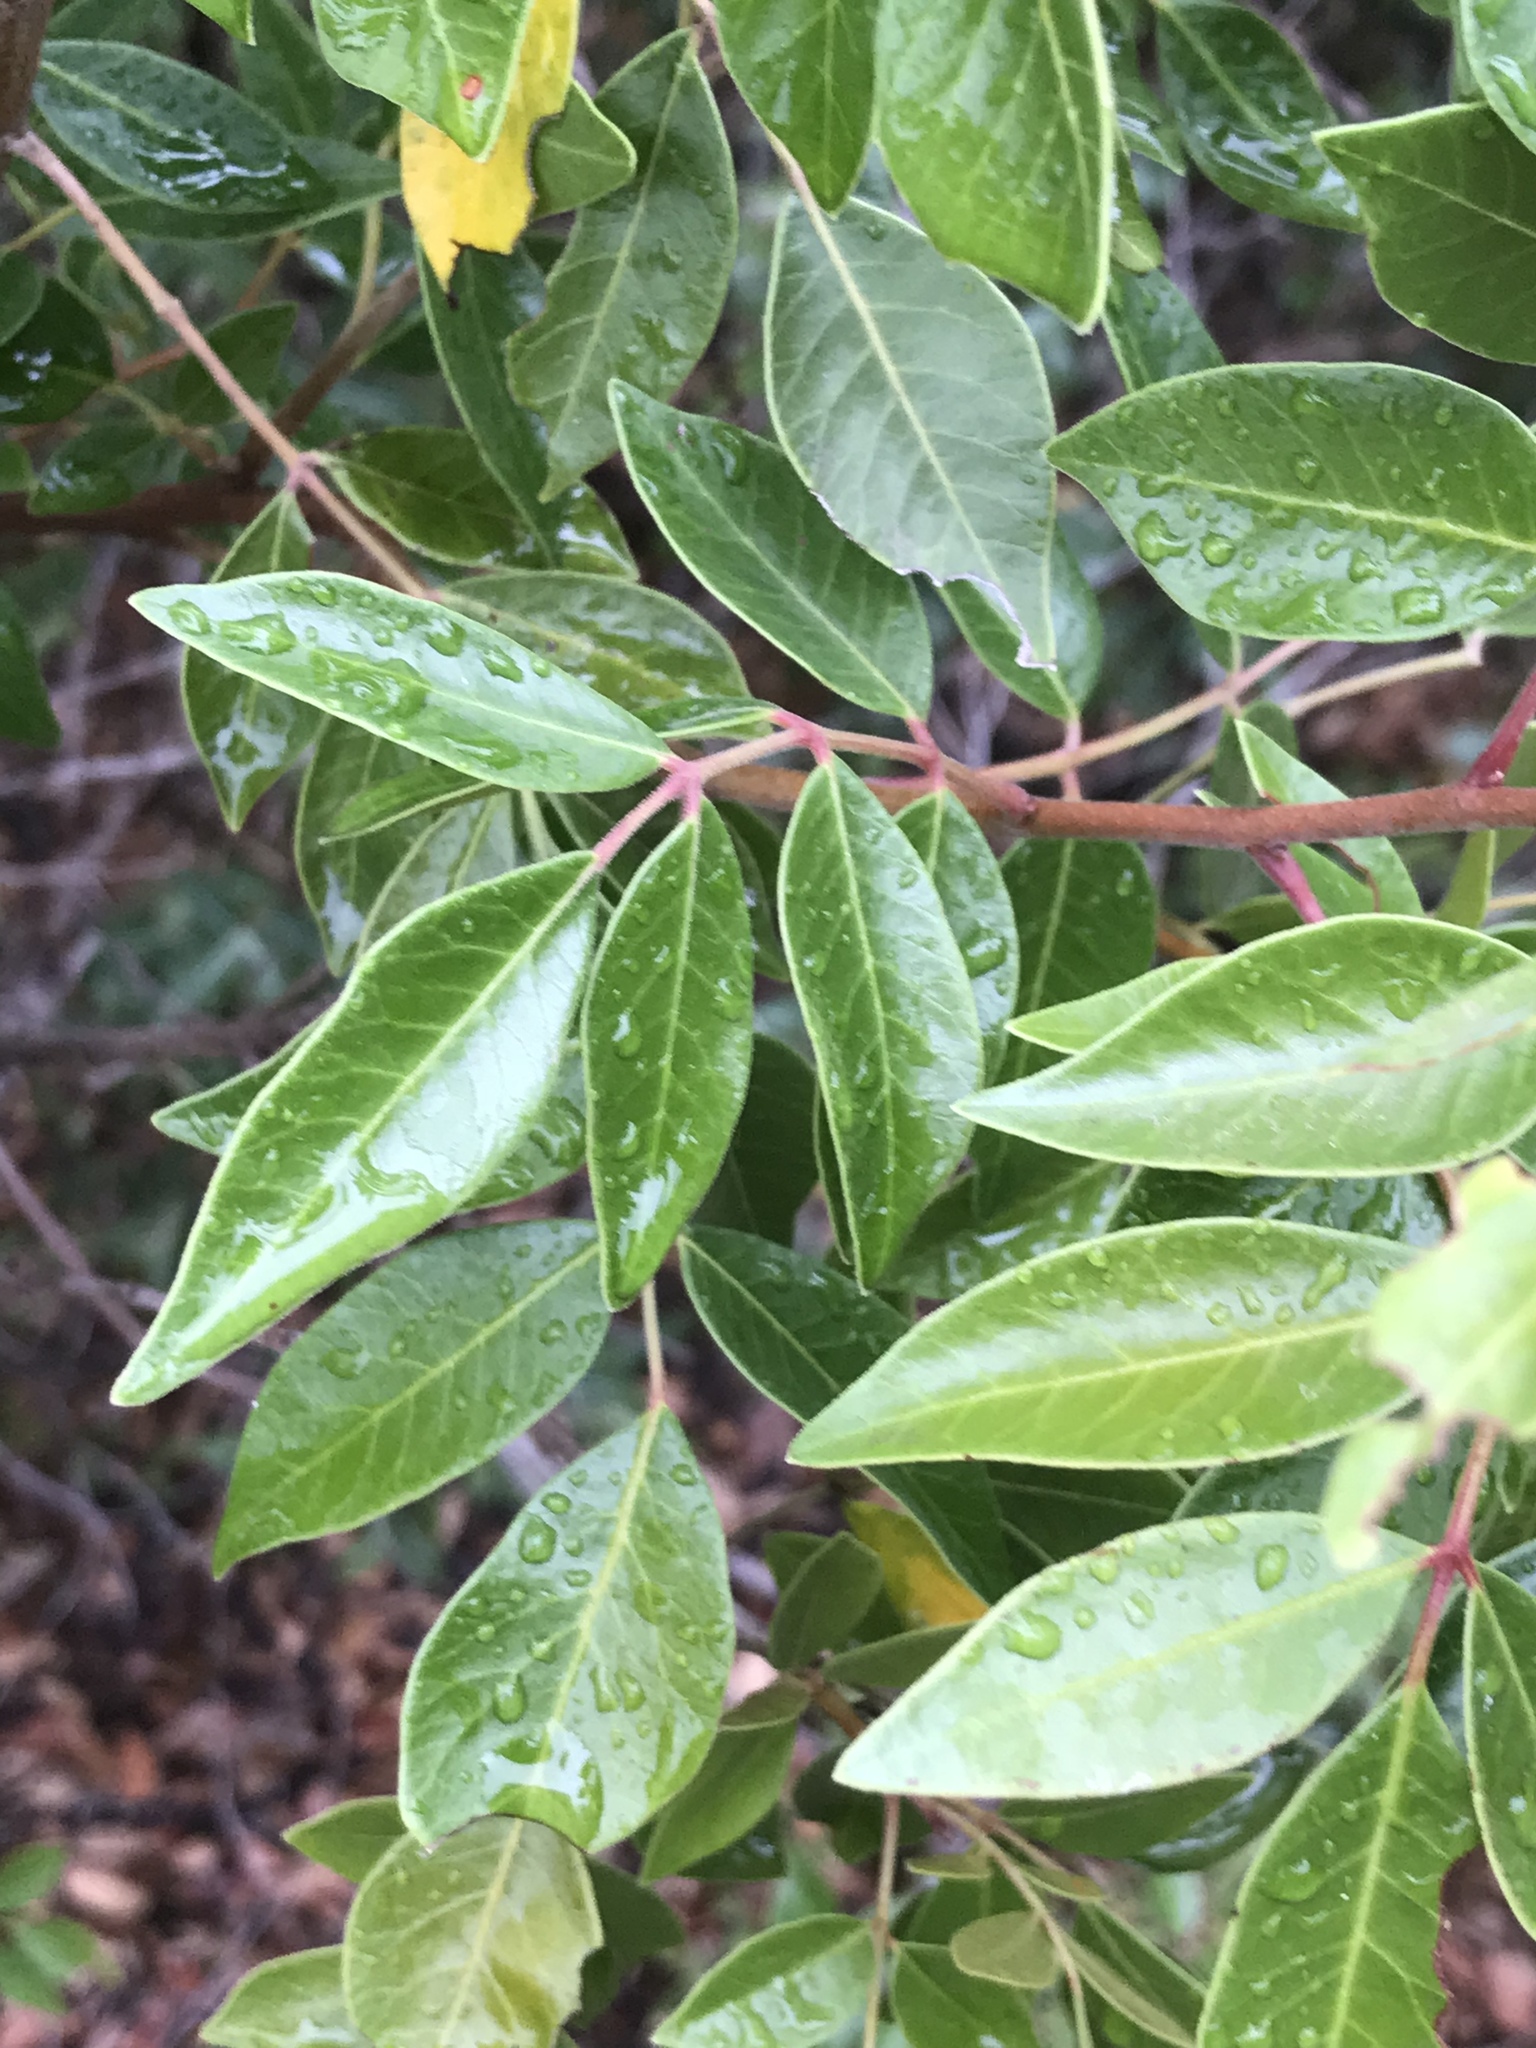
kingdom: Plantae
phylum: Tracheophyta
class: Magnoliopsida
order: Sapindales
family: Anacardiaceae
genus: Rhus
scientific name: Rhus virens
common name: Evergreen sumac
